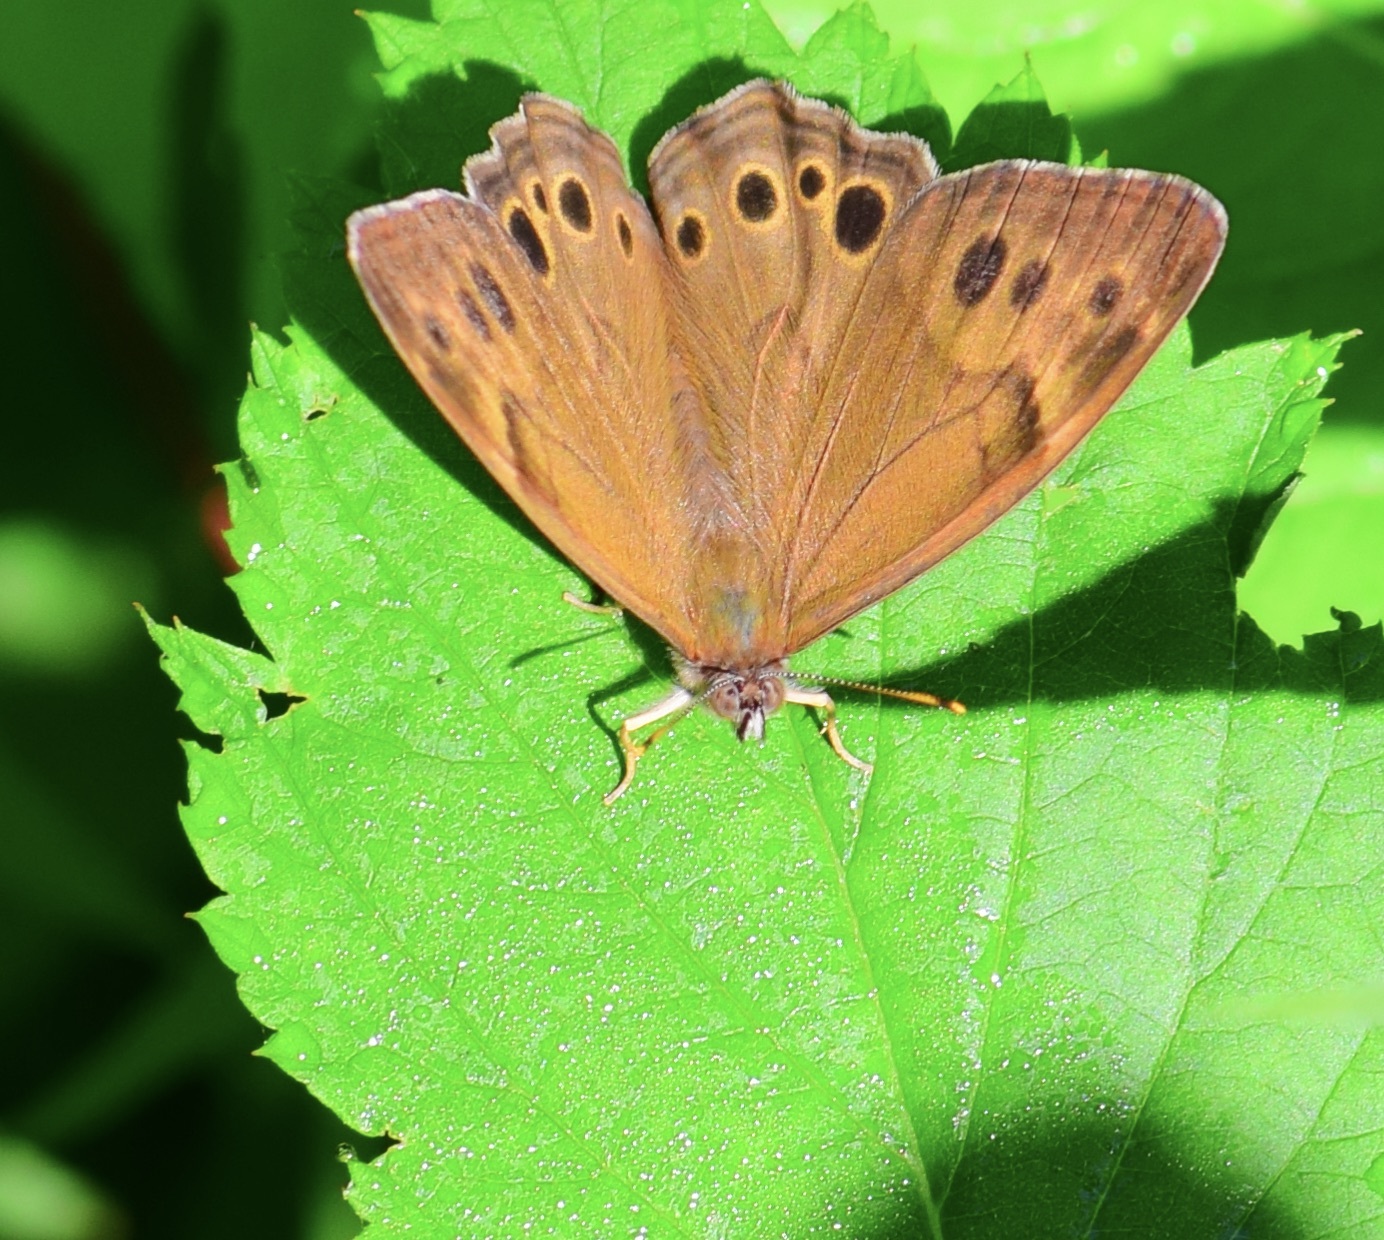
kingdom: Animalia
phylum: Arthropoda
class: Insecta
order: Lepidoptera
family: Nymphalidae
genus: Lethe
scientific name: Lethe anthedon
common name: Northern pearly-eye
